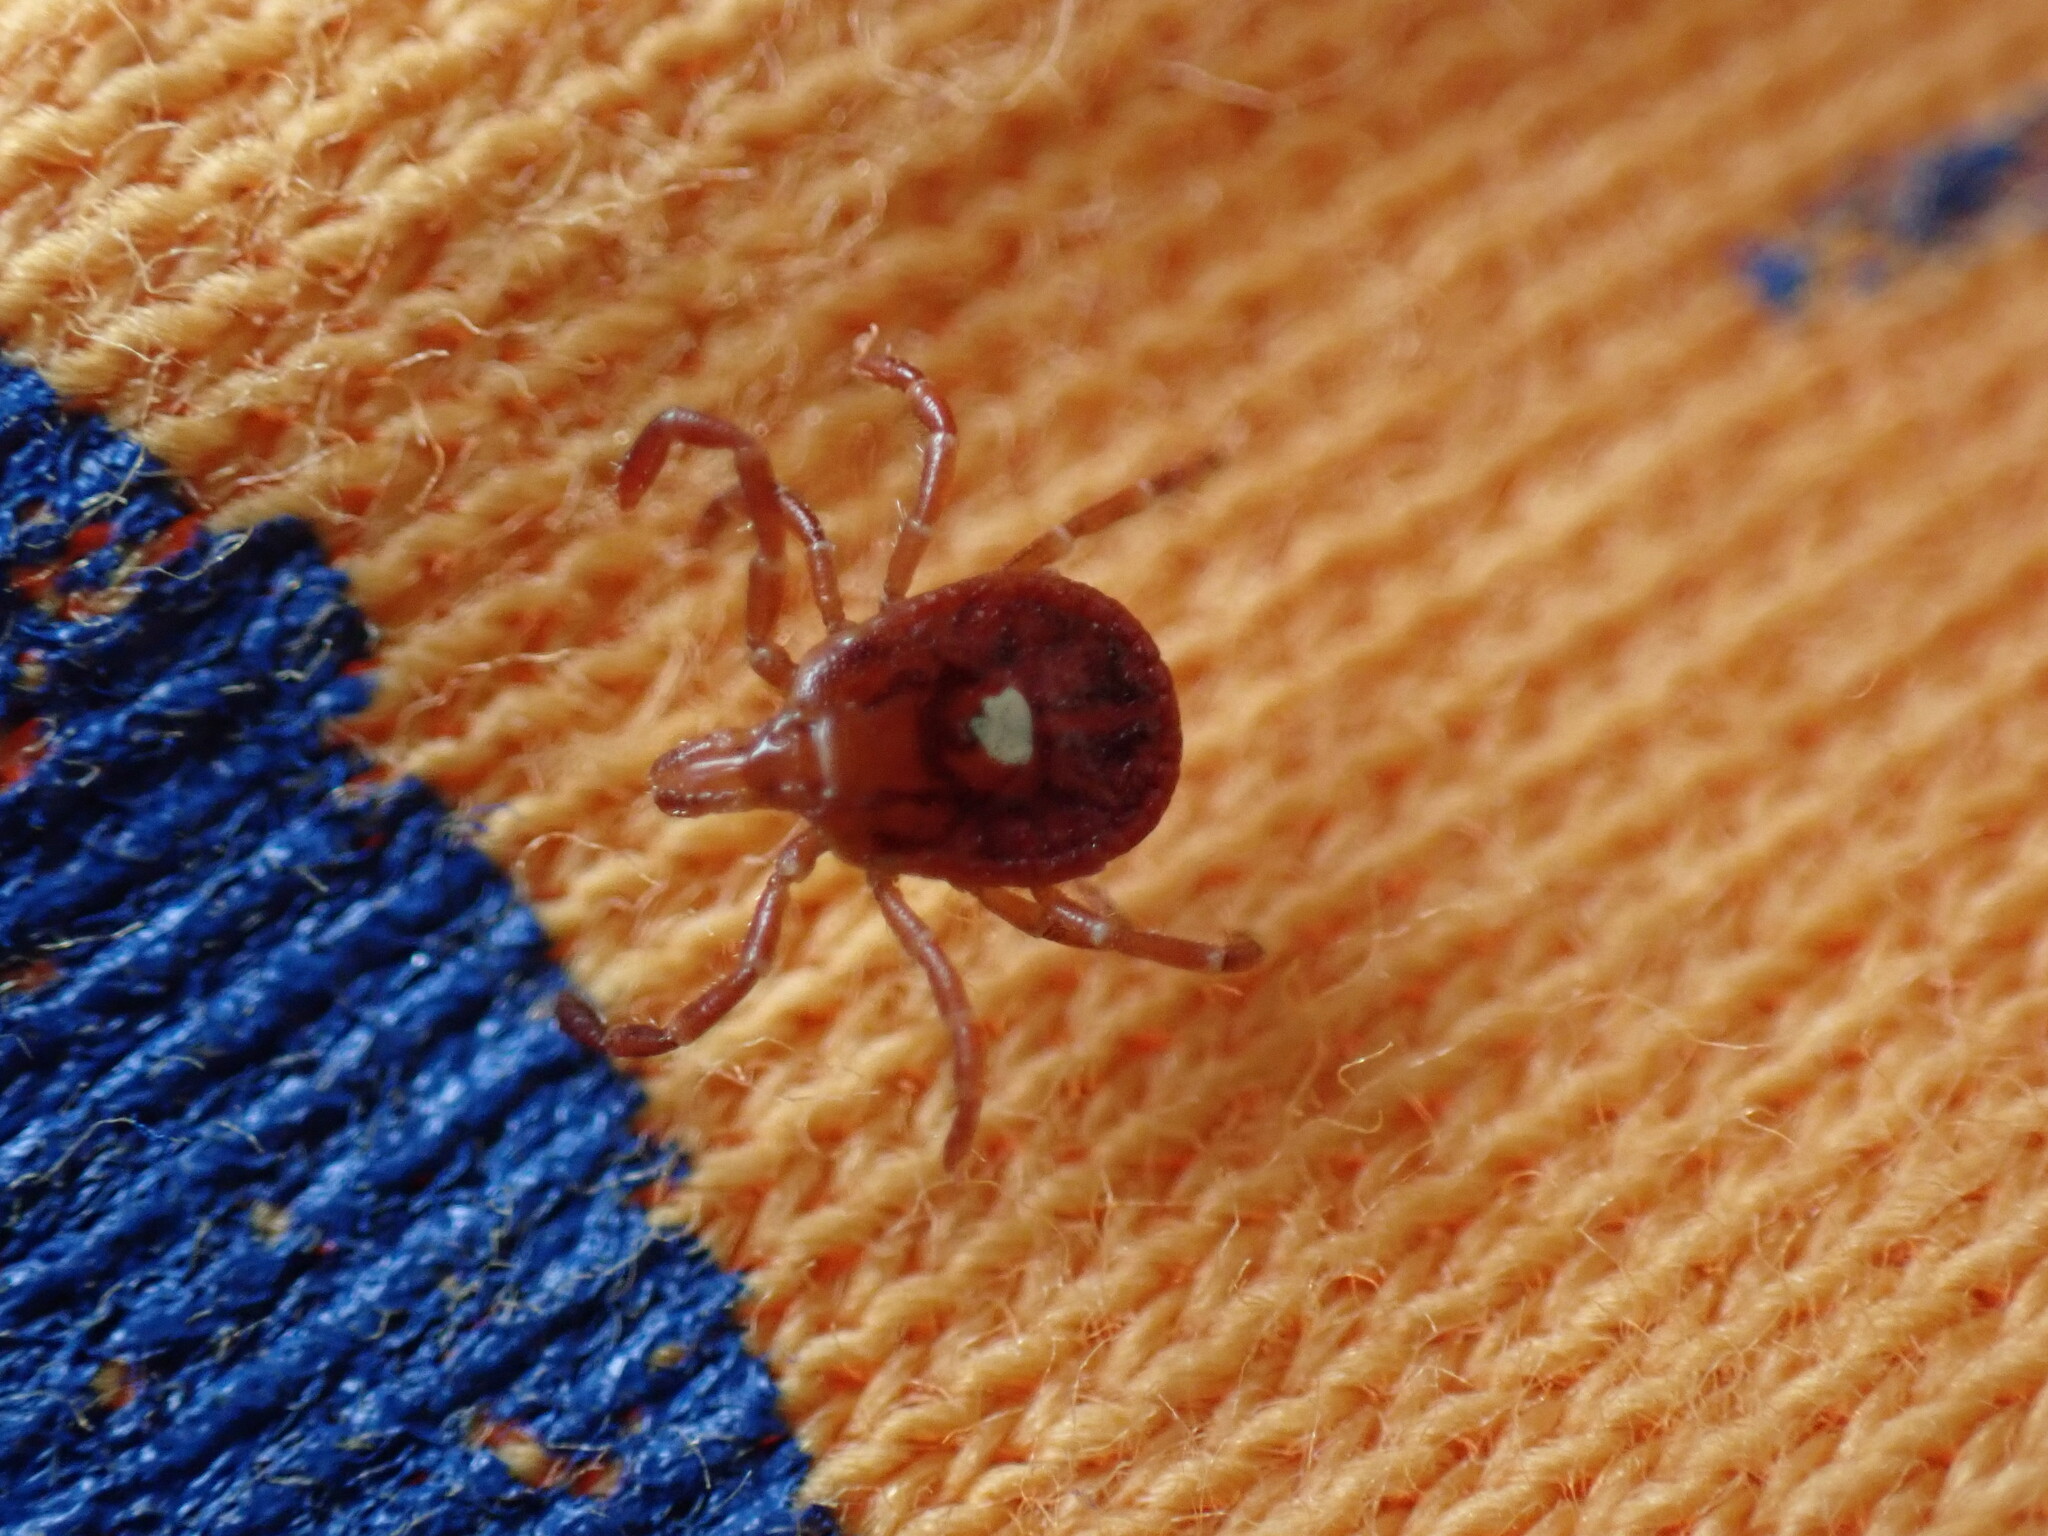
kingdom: Animalia
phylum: Arthropoda
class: Arachnida
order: Ixodida
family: Ixodidae
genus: Amblyomma
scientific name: Amblyomma americanum
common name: Lone star tick
